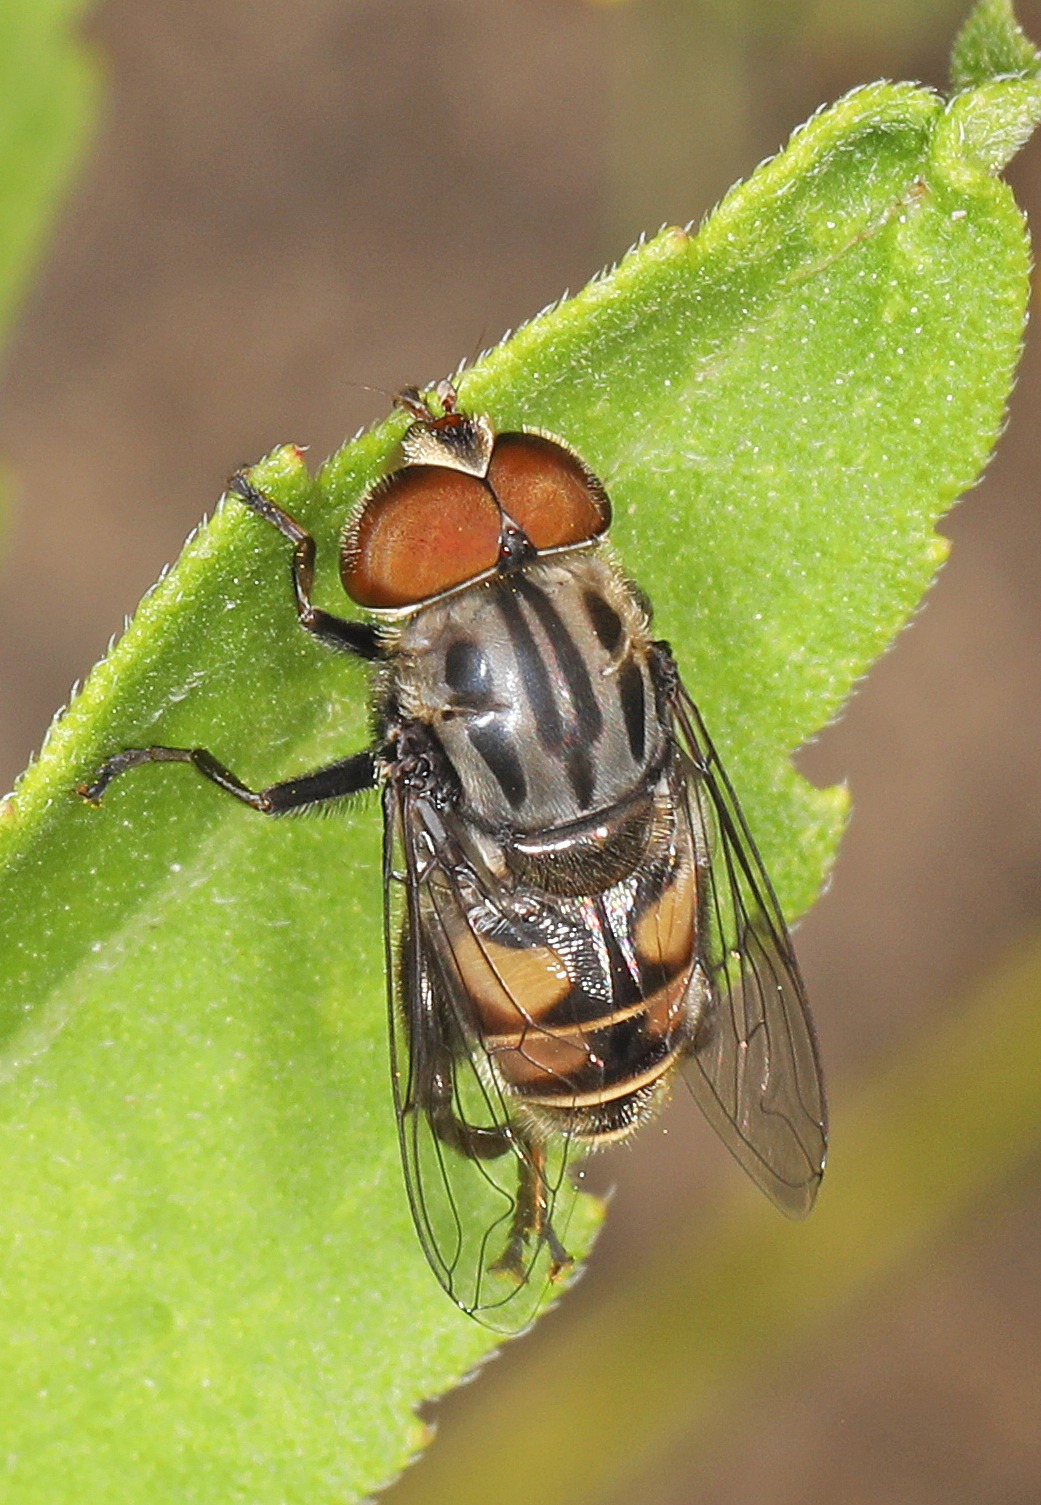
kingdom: Animalia
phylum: Arthropoda
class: Insecta
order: Diptera
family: Syrphidae
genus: Palpada
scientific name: Palpada furcata
